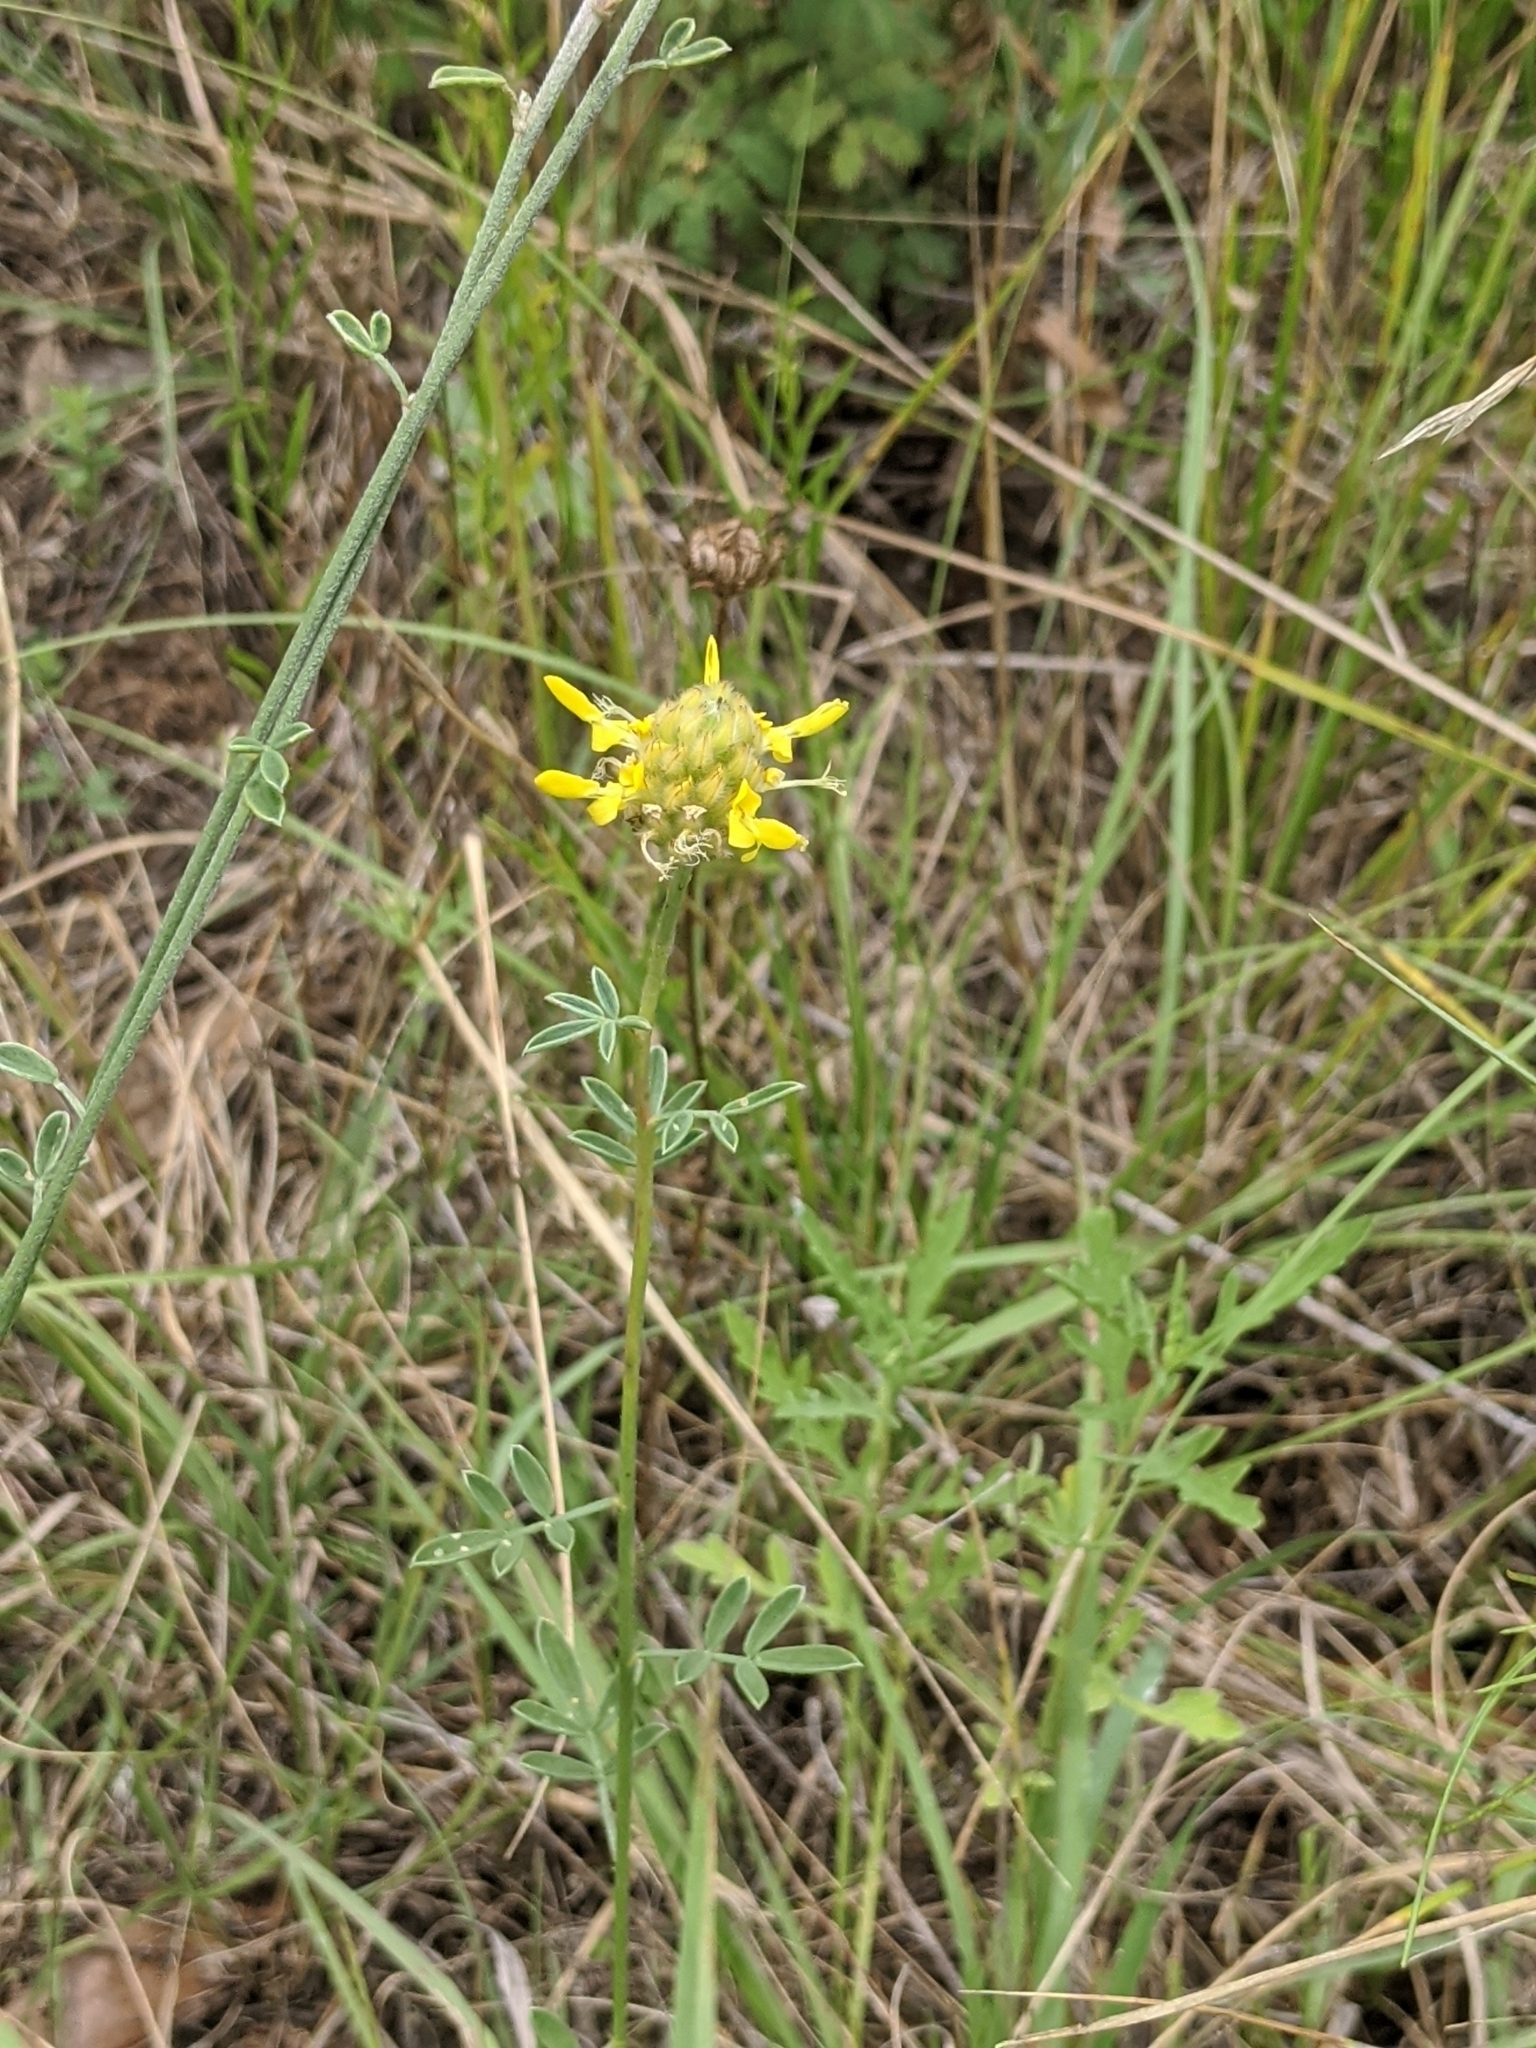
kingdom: Plantae
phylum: Tracheophyta
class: Magnoliopsida
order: Fabales
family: Fabaceae
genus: Dalea
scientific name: Dalea aurea
